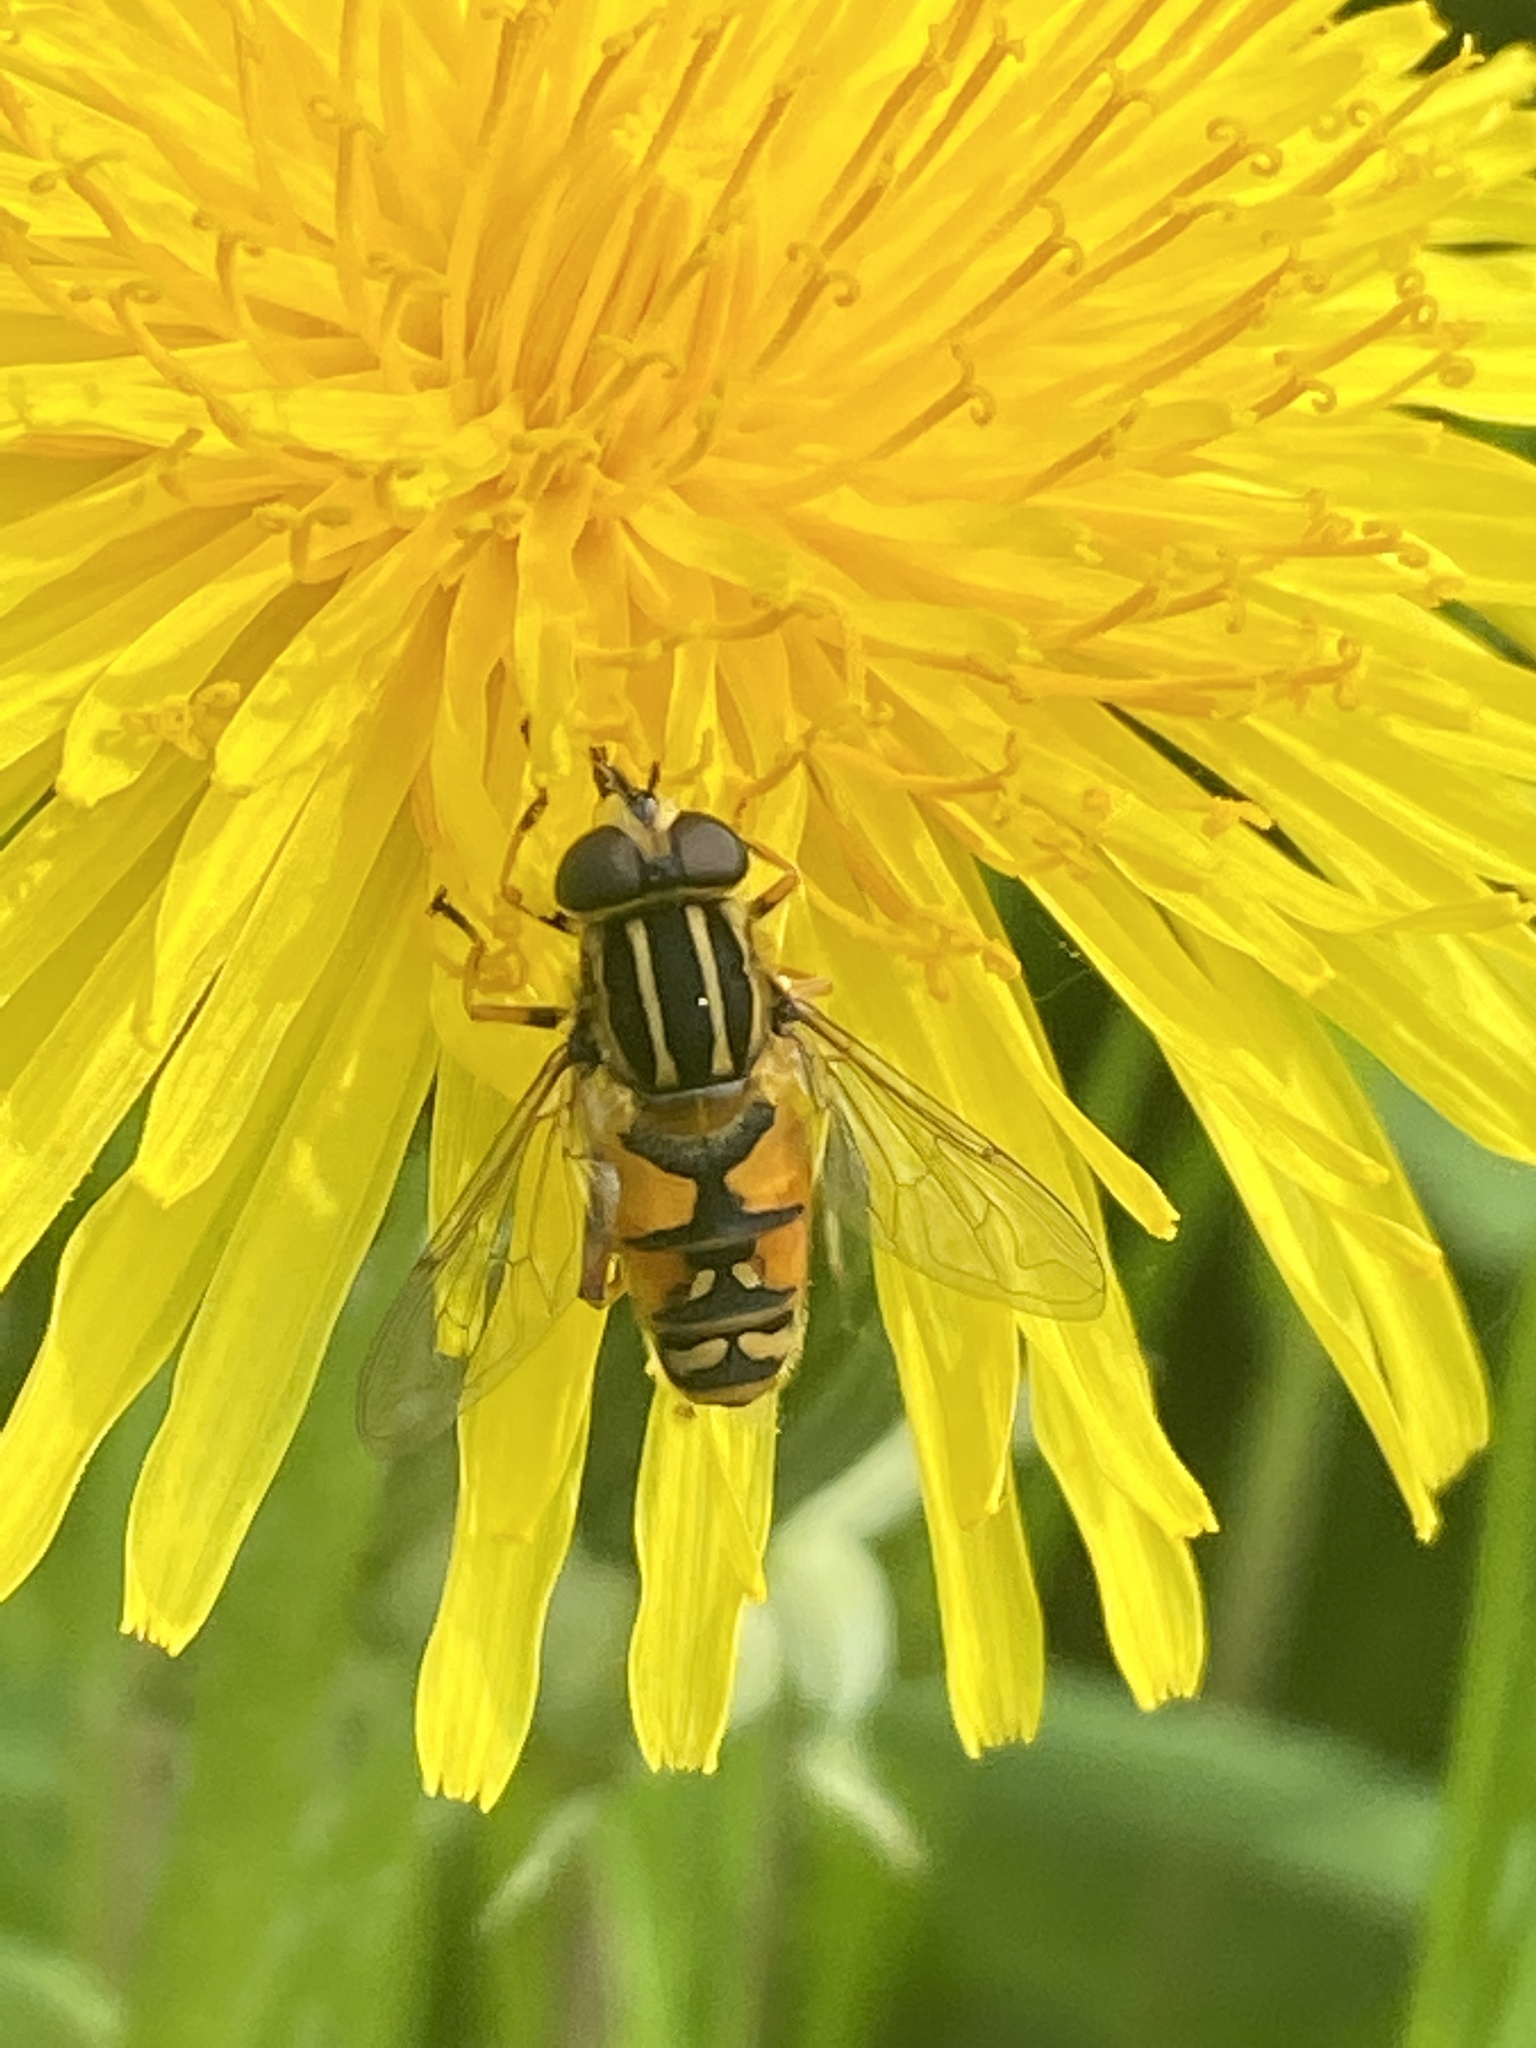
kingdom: Animalia
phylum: Arthropoda
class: Insecta
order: Diptera
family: Syrphidae
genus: Helophilus
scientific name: Helophilus pendulus
